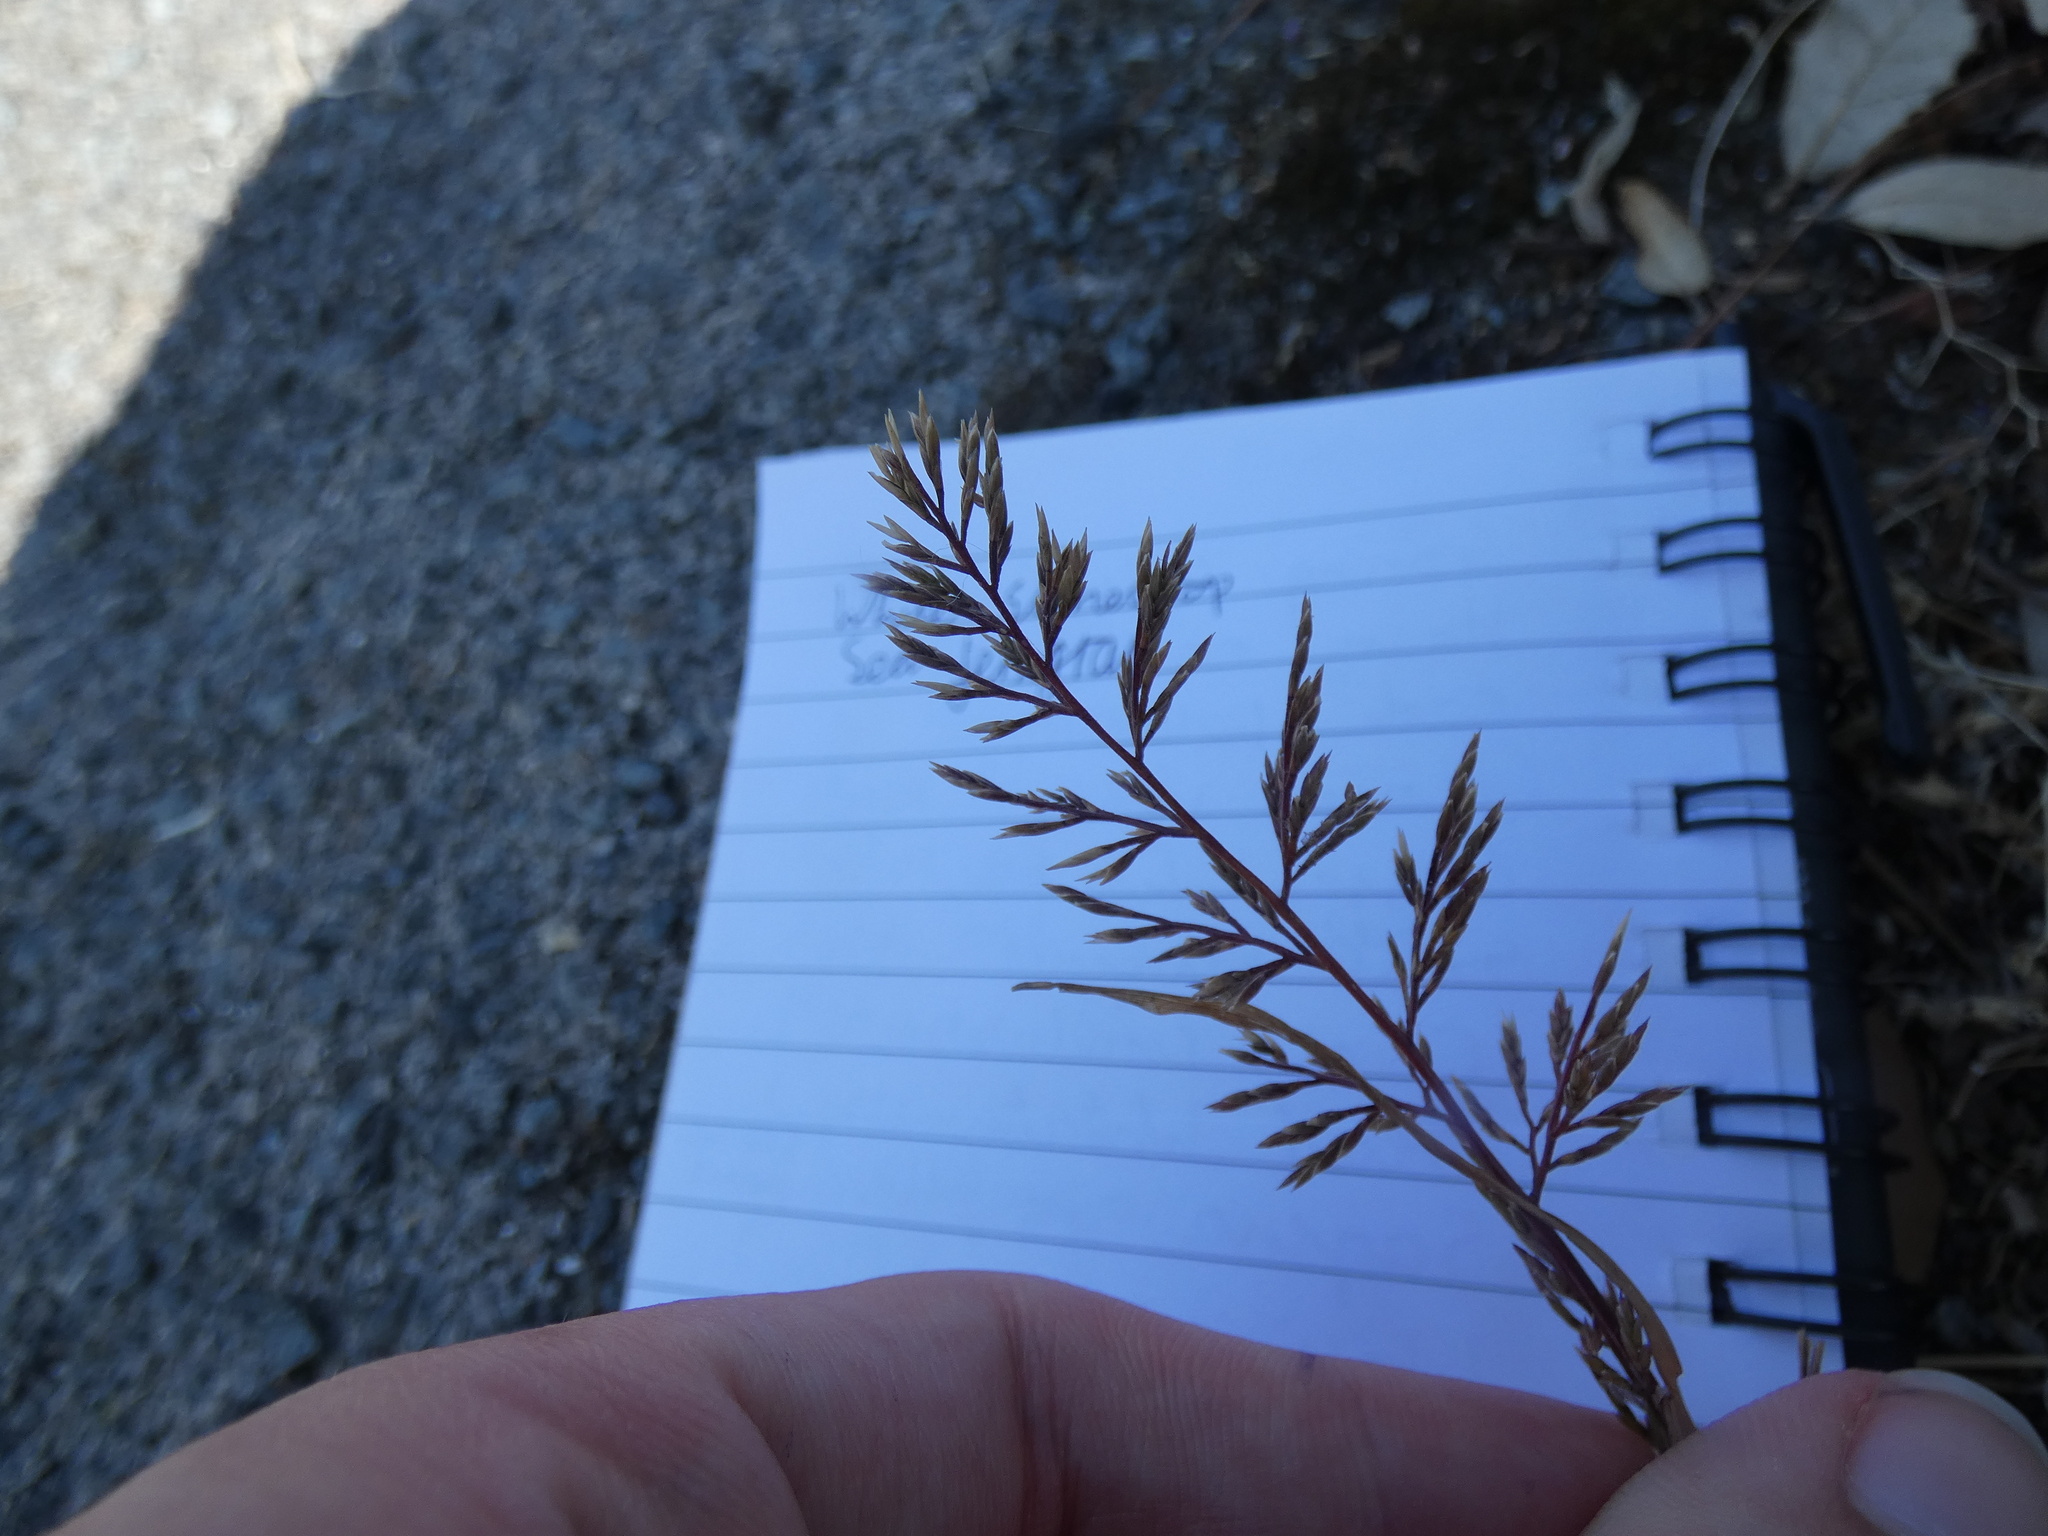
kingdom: Plantae
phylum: Tracheophyta
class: Liliopsida
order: Poales
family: Poaceae
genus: Catapodium
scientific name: Catapodium rigidum
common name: Fern-grass
